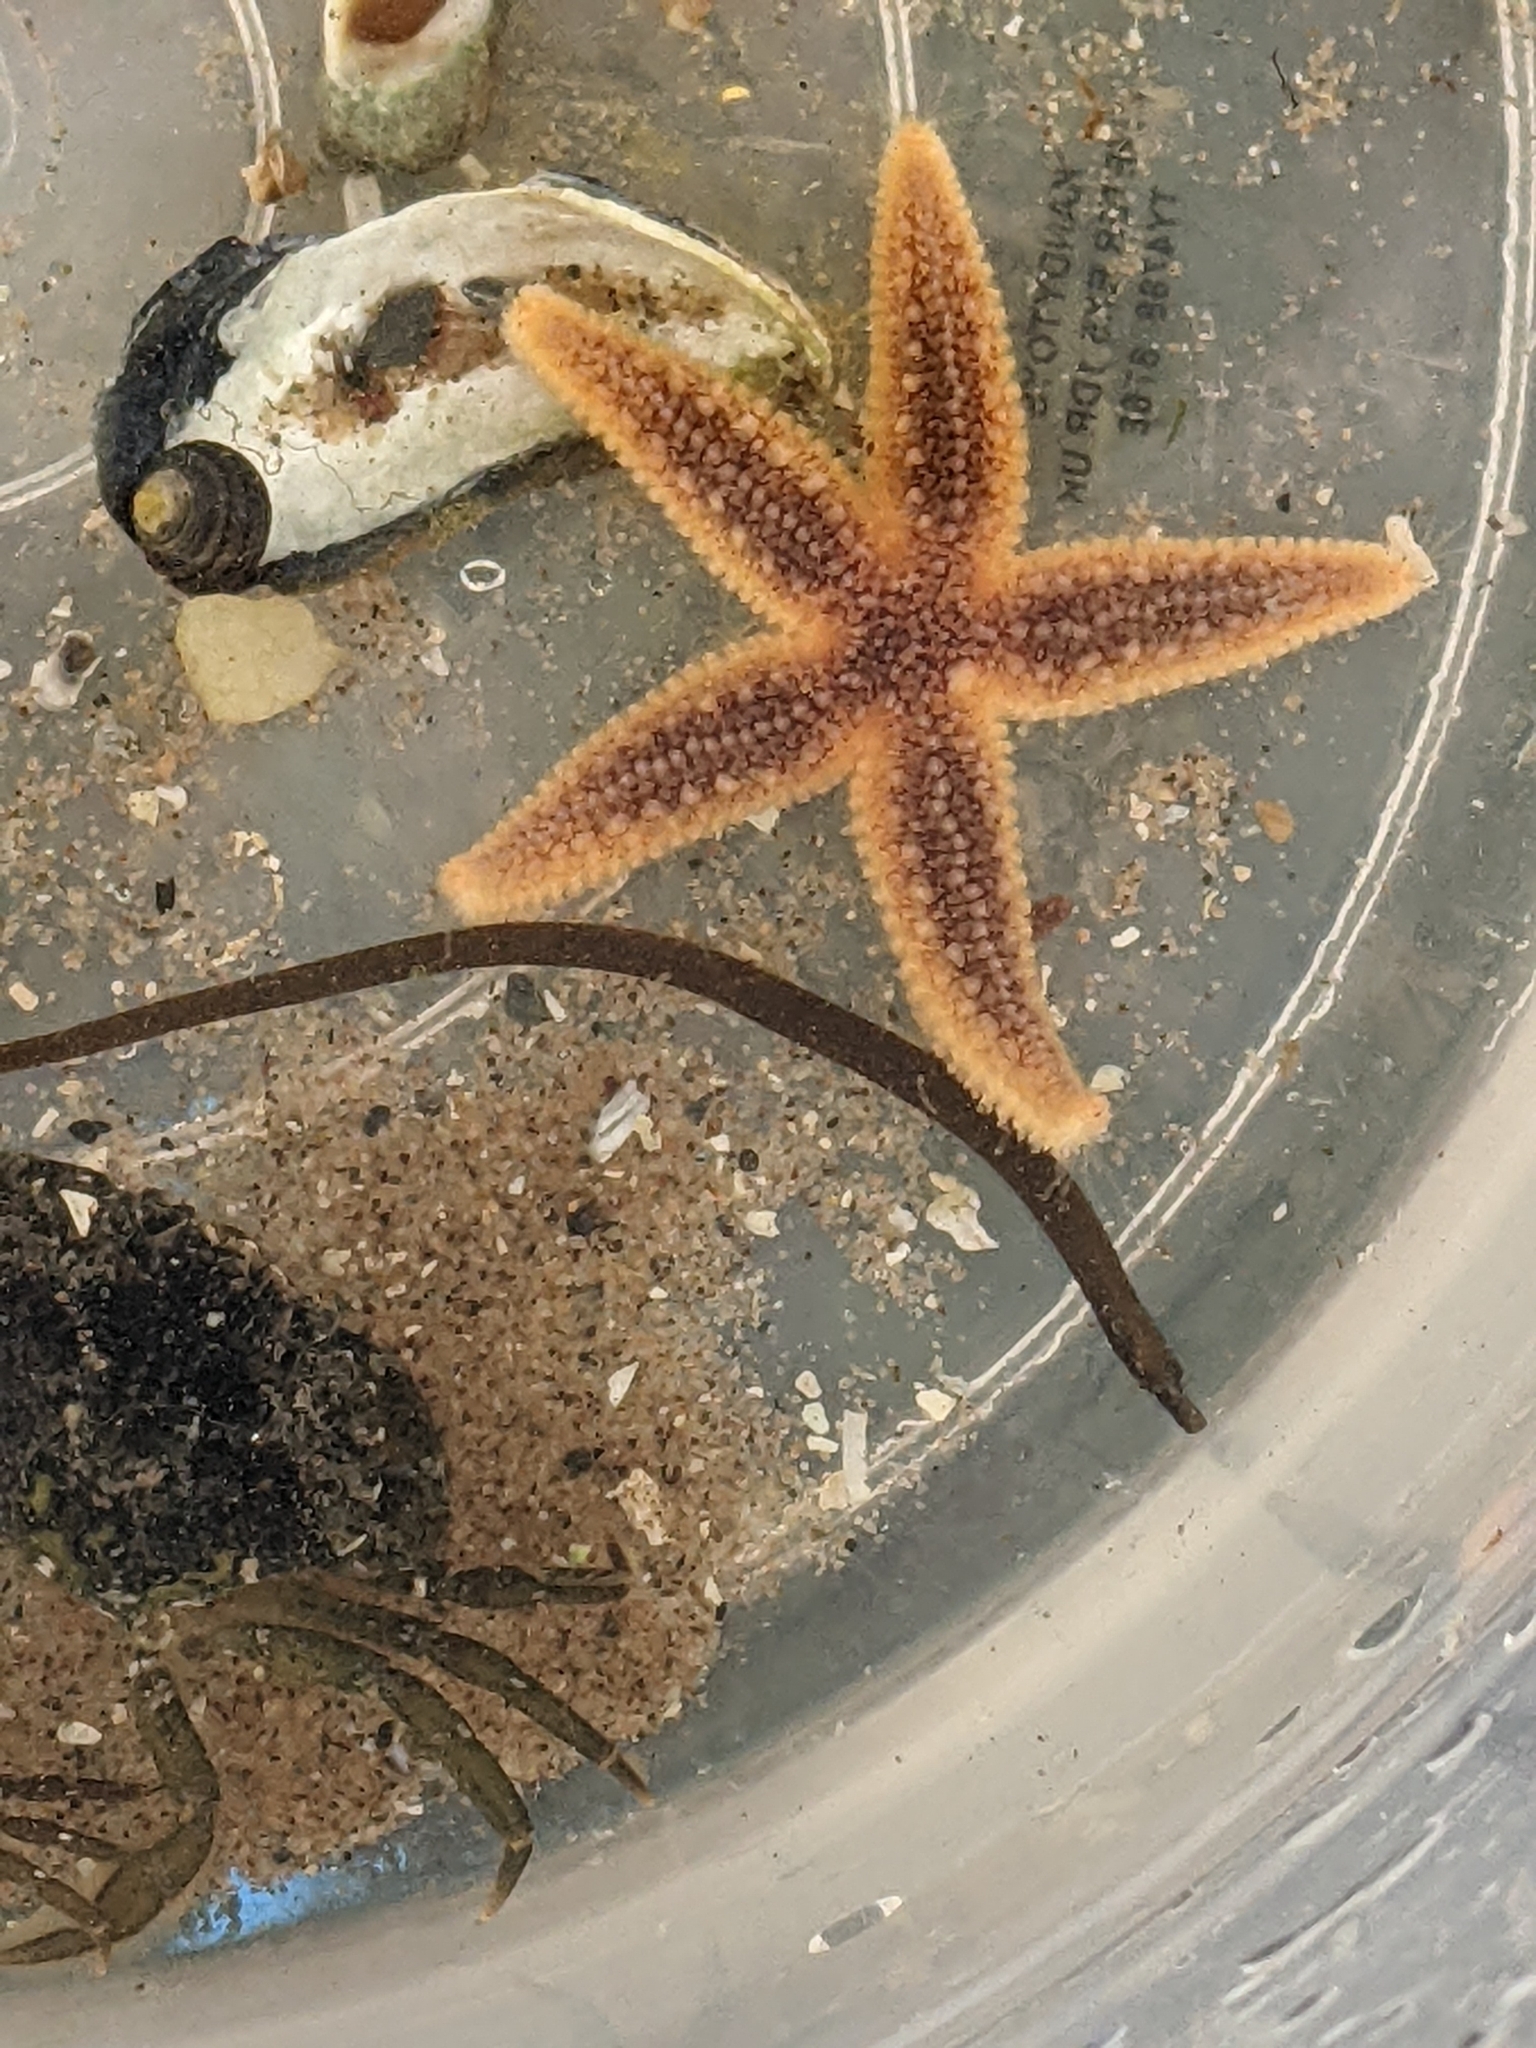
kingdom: Animalia
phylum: Chordata
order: Syngnathiformes
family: Syngnathidae
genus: Nerophis
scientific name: Nerophis lumbriciformis
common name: Worm pipefish
